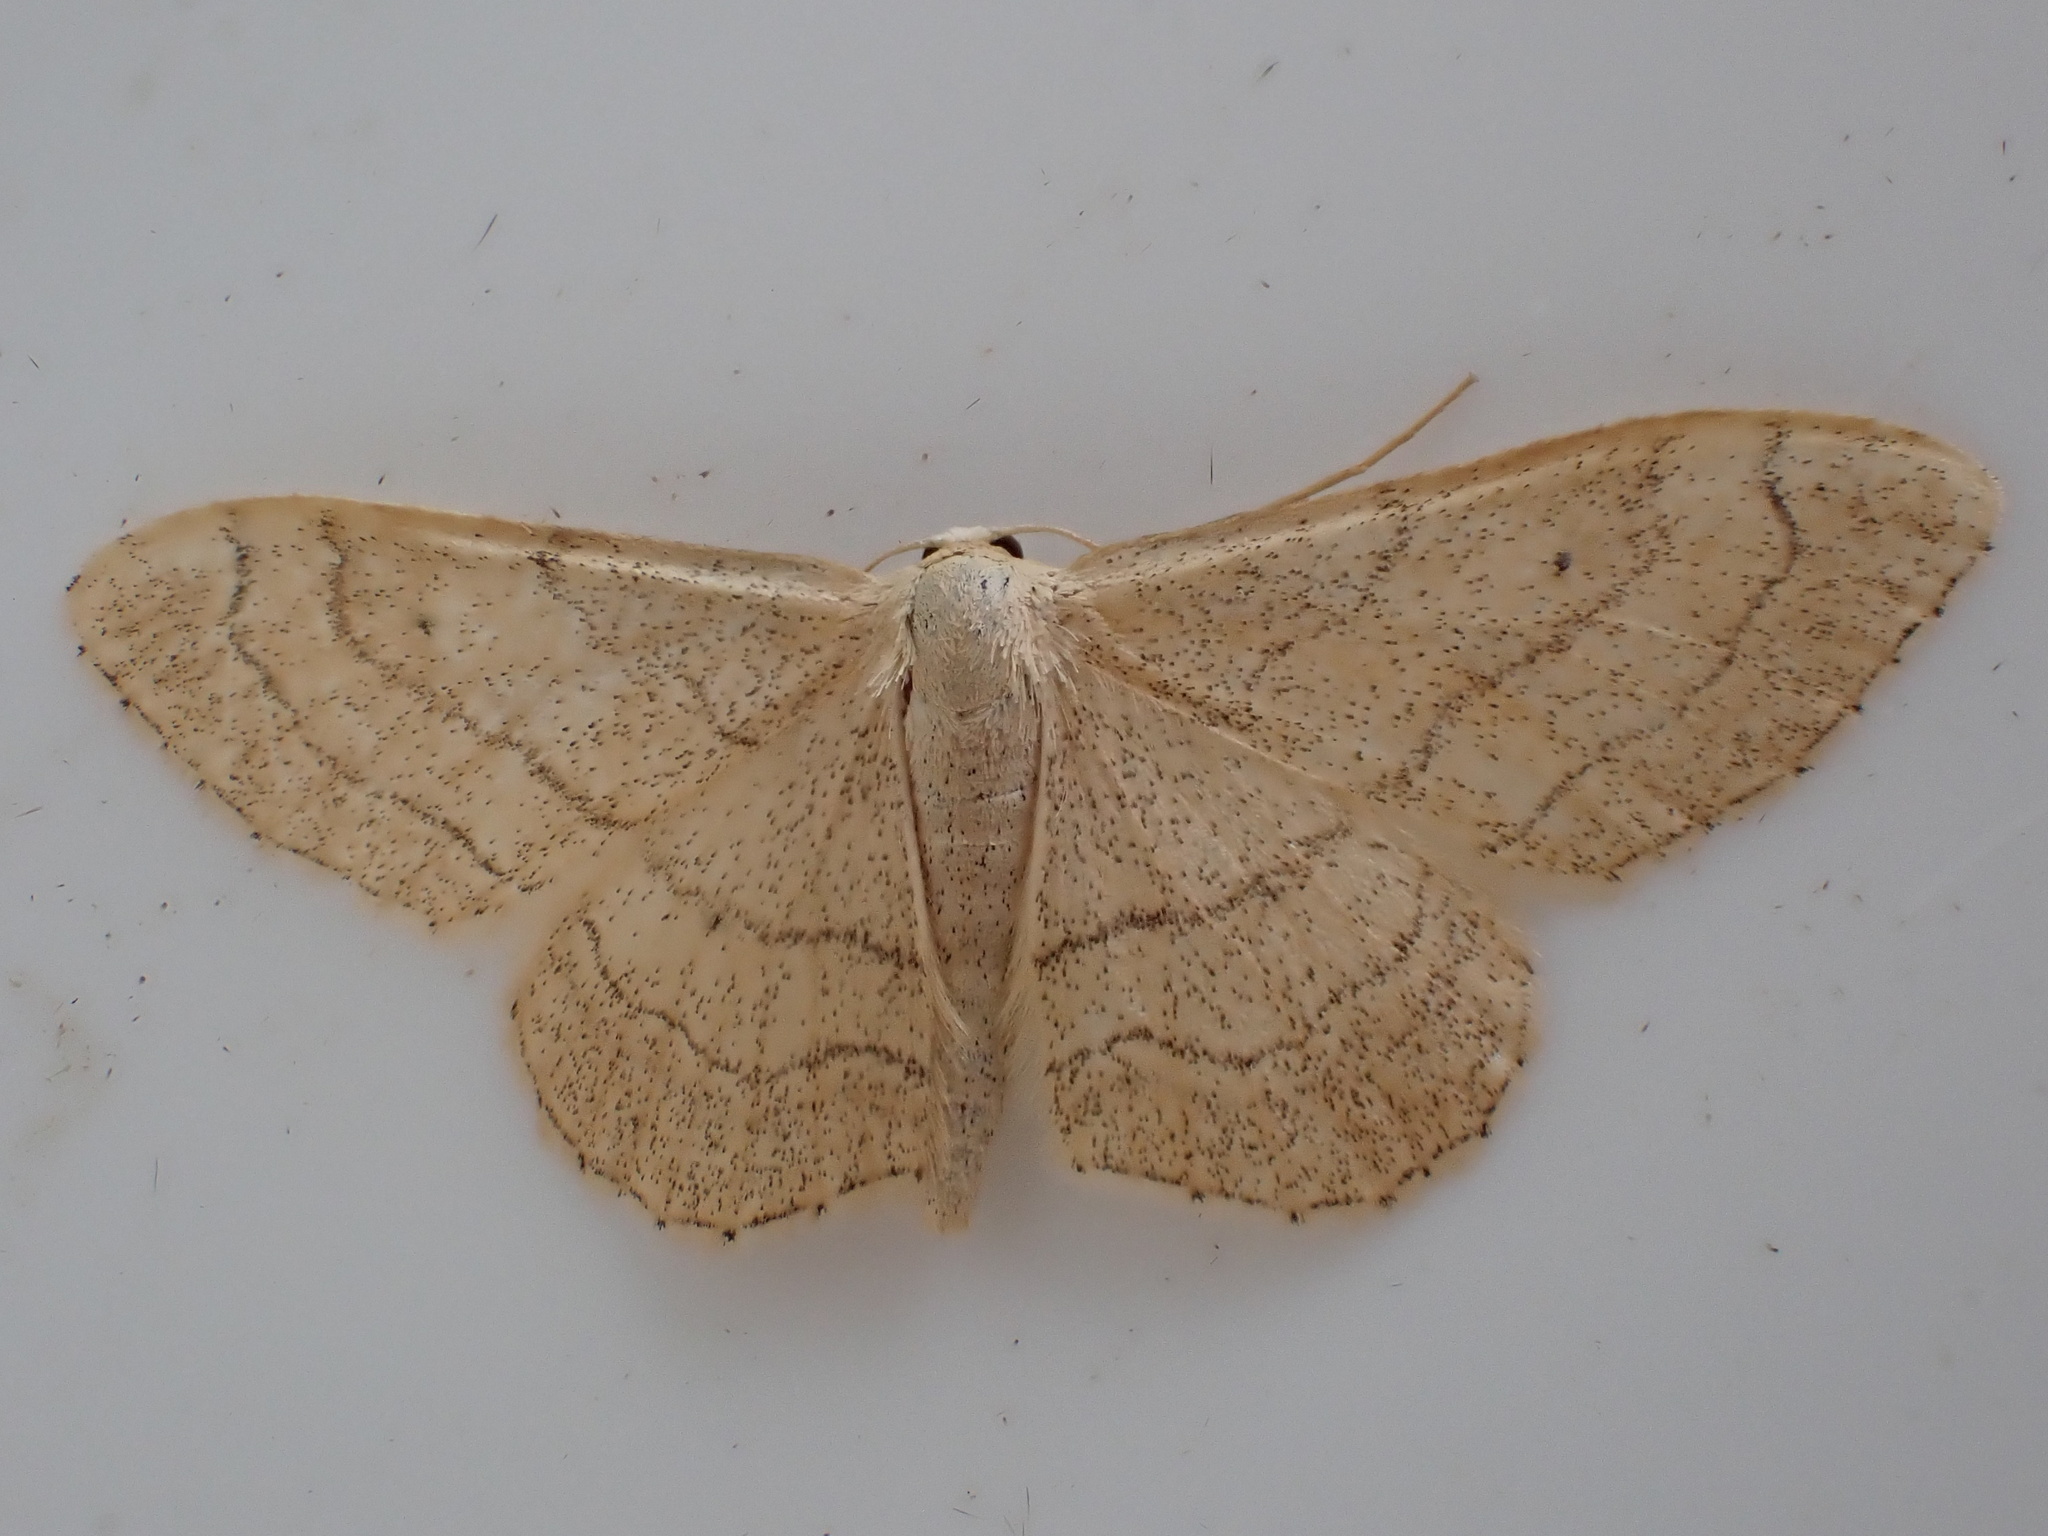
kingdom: Animalia
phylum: Arthropoda
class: Insecta
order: Lepidoptera
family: Geometridae
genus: Idaea
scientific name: Idaea aversata
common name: Riband wave
